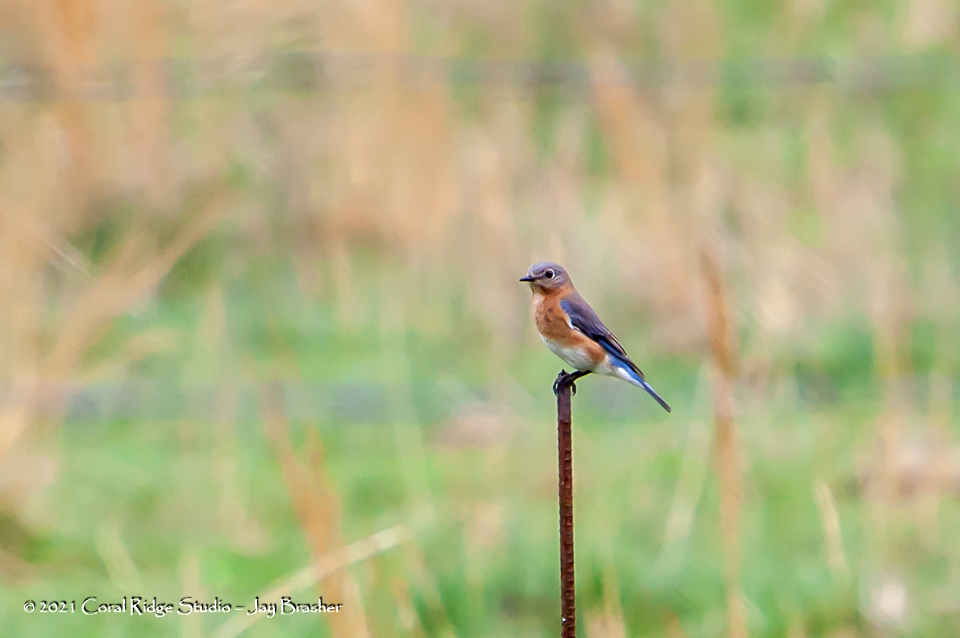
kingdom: Animalia
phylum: Chordata
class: Aves
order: Passeriformes
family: Turdidae
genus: Sialia
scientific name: Sialia sialis
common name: Eastern bluebird
